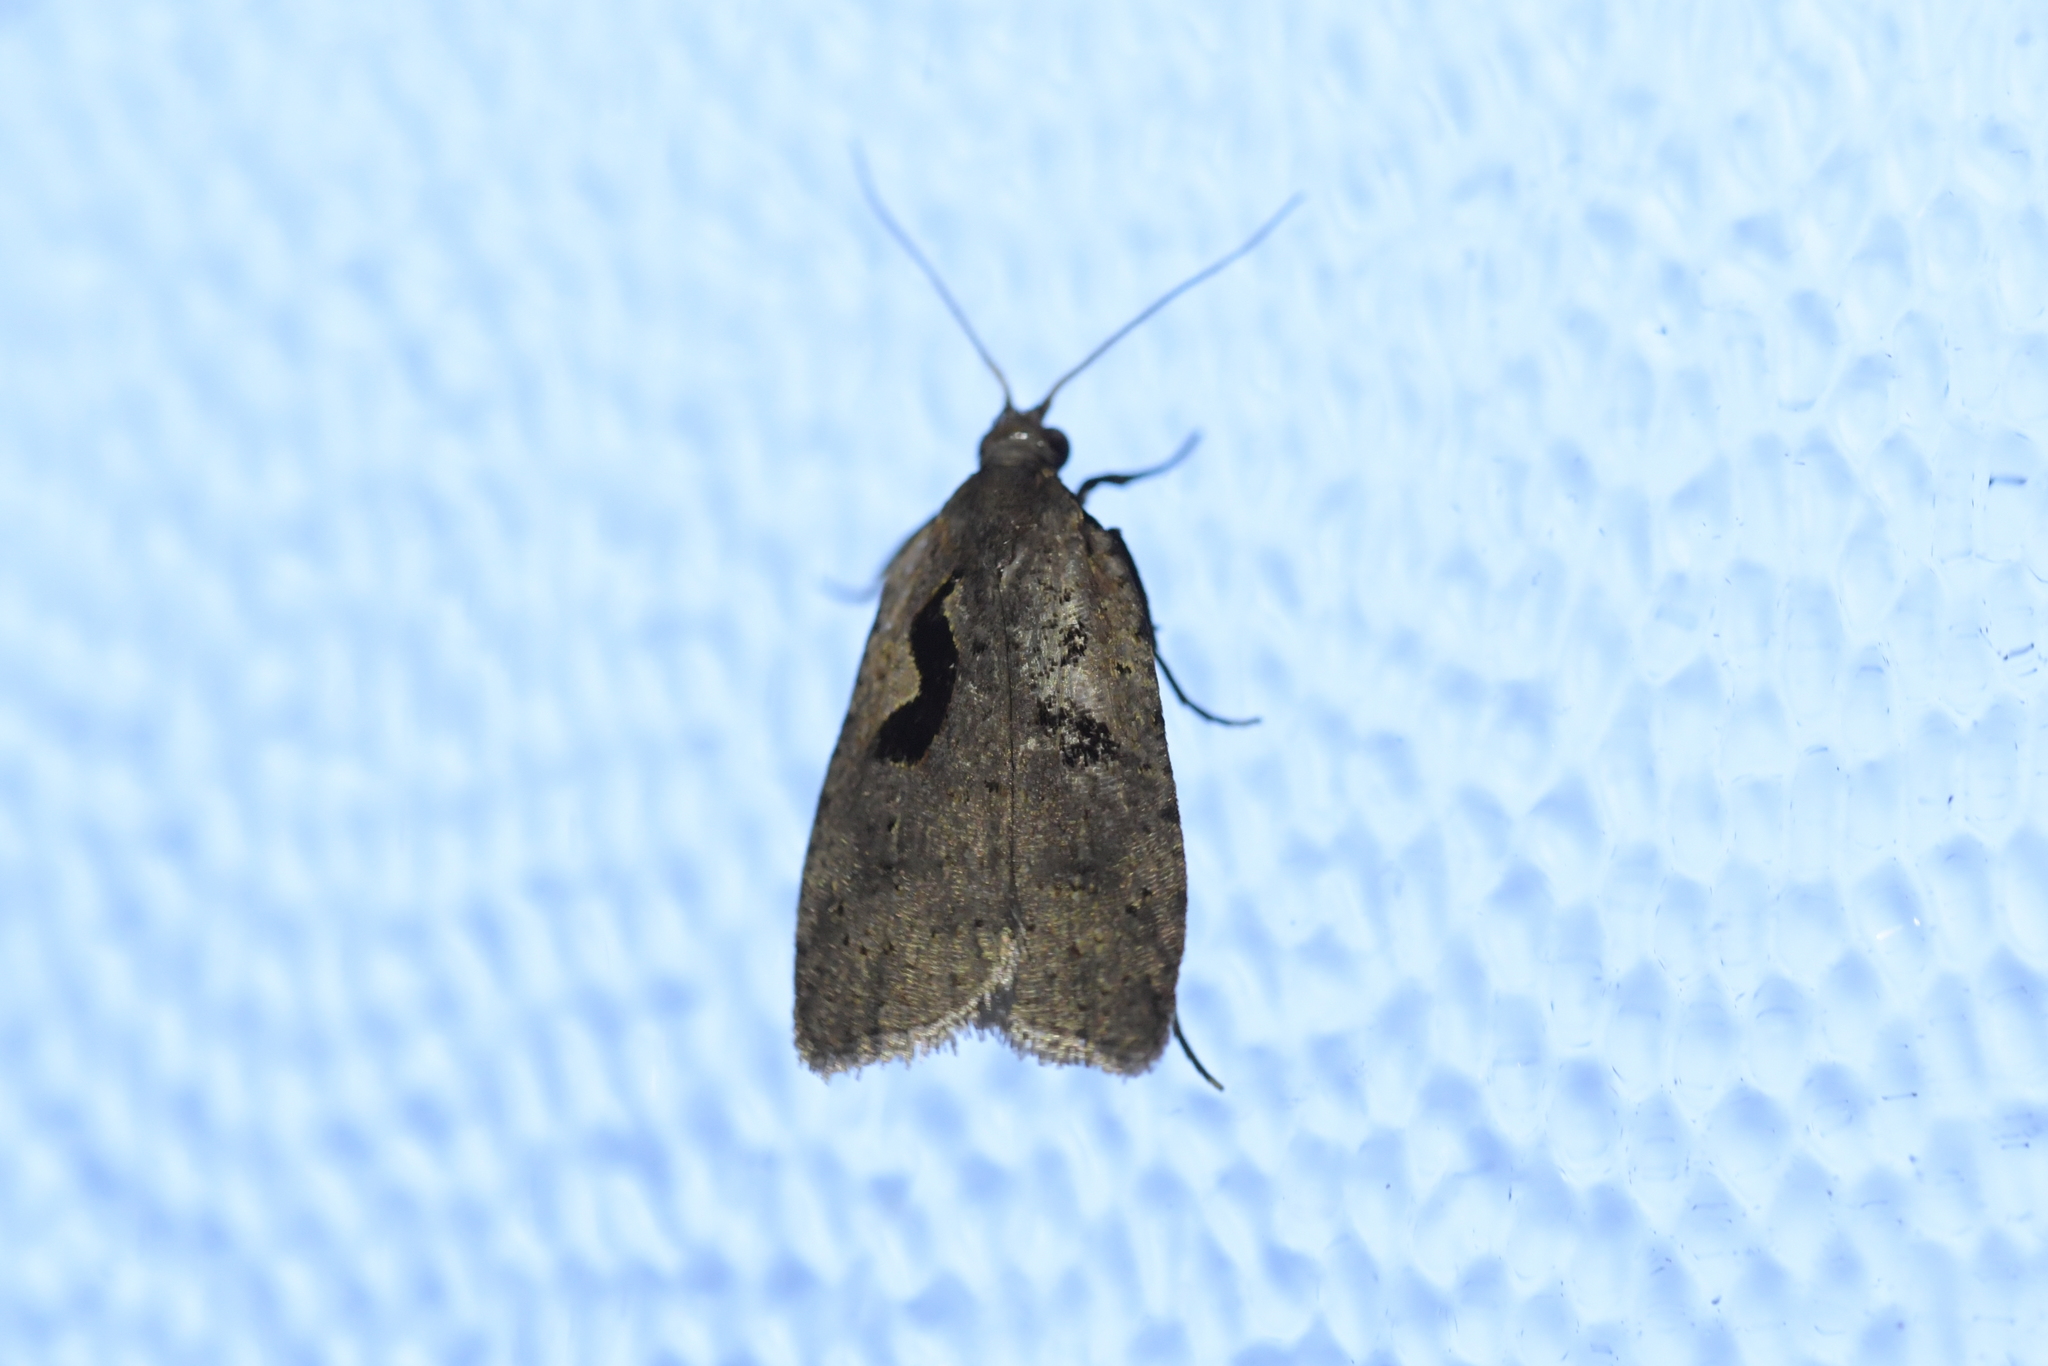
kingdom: Animalia
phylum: Arthropoda
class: Insecta
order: Lepidoptera
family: Tortricidae
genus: Cnephasia
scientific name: Cnephasia jactatana
